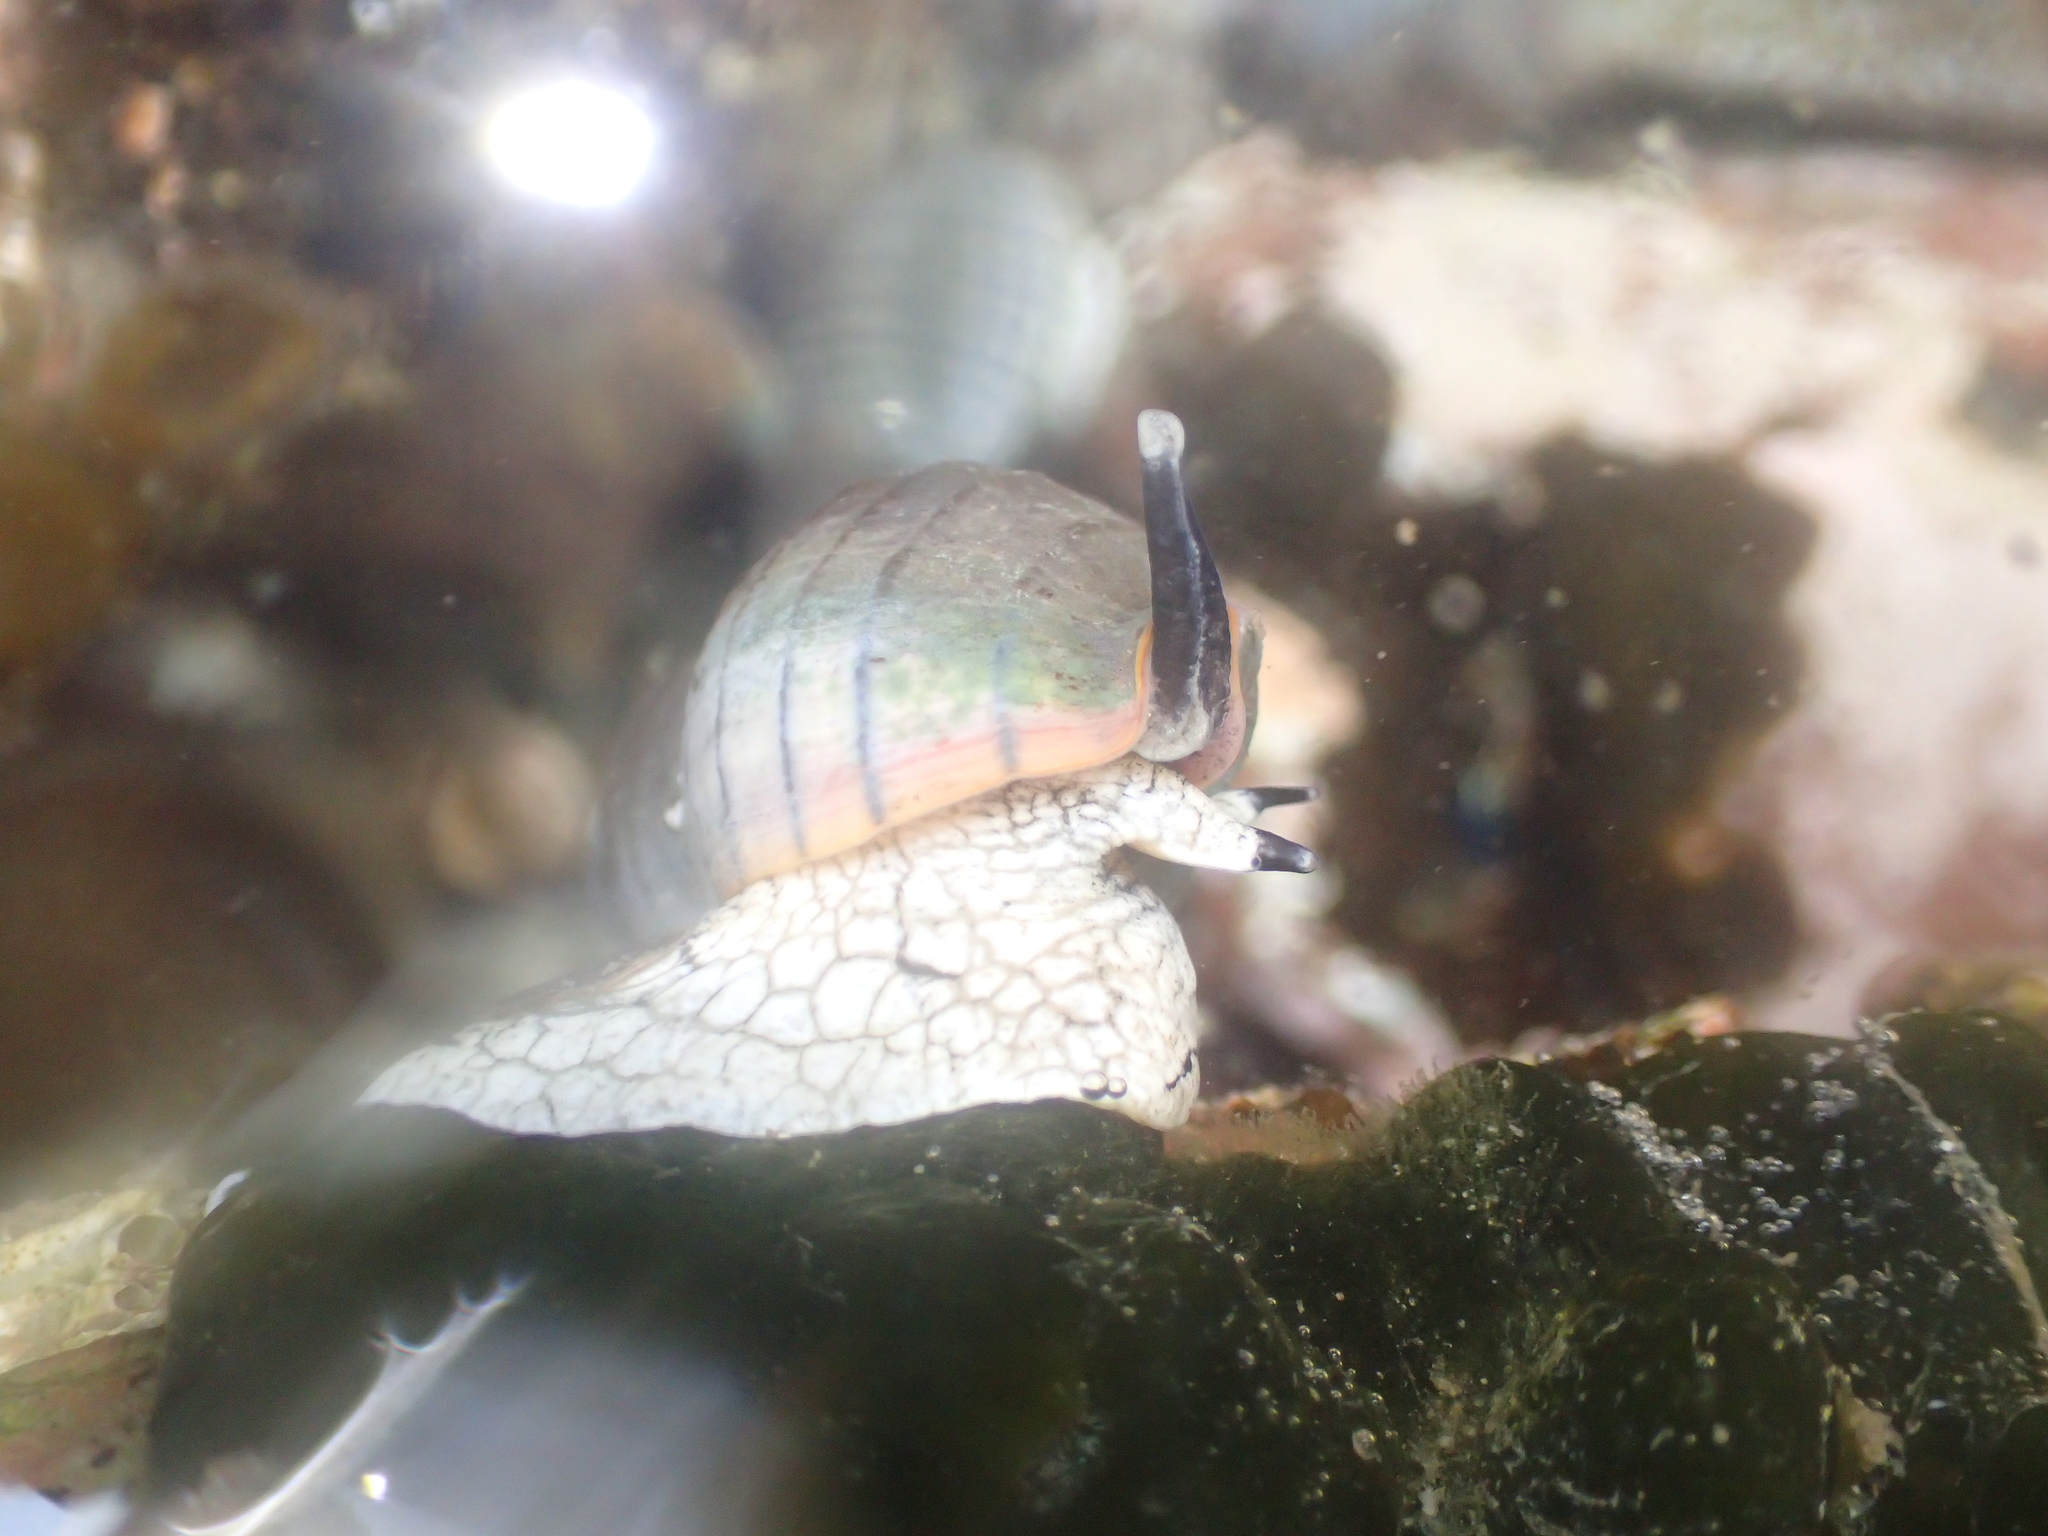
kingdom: Animalia
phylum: Mollusca
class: Gastropoda
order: Neogastropoda
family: Cominellidae
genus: Cominella
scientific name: Cominella virgata
